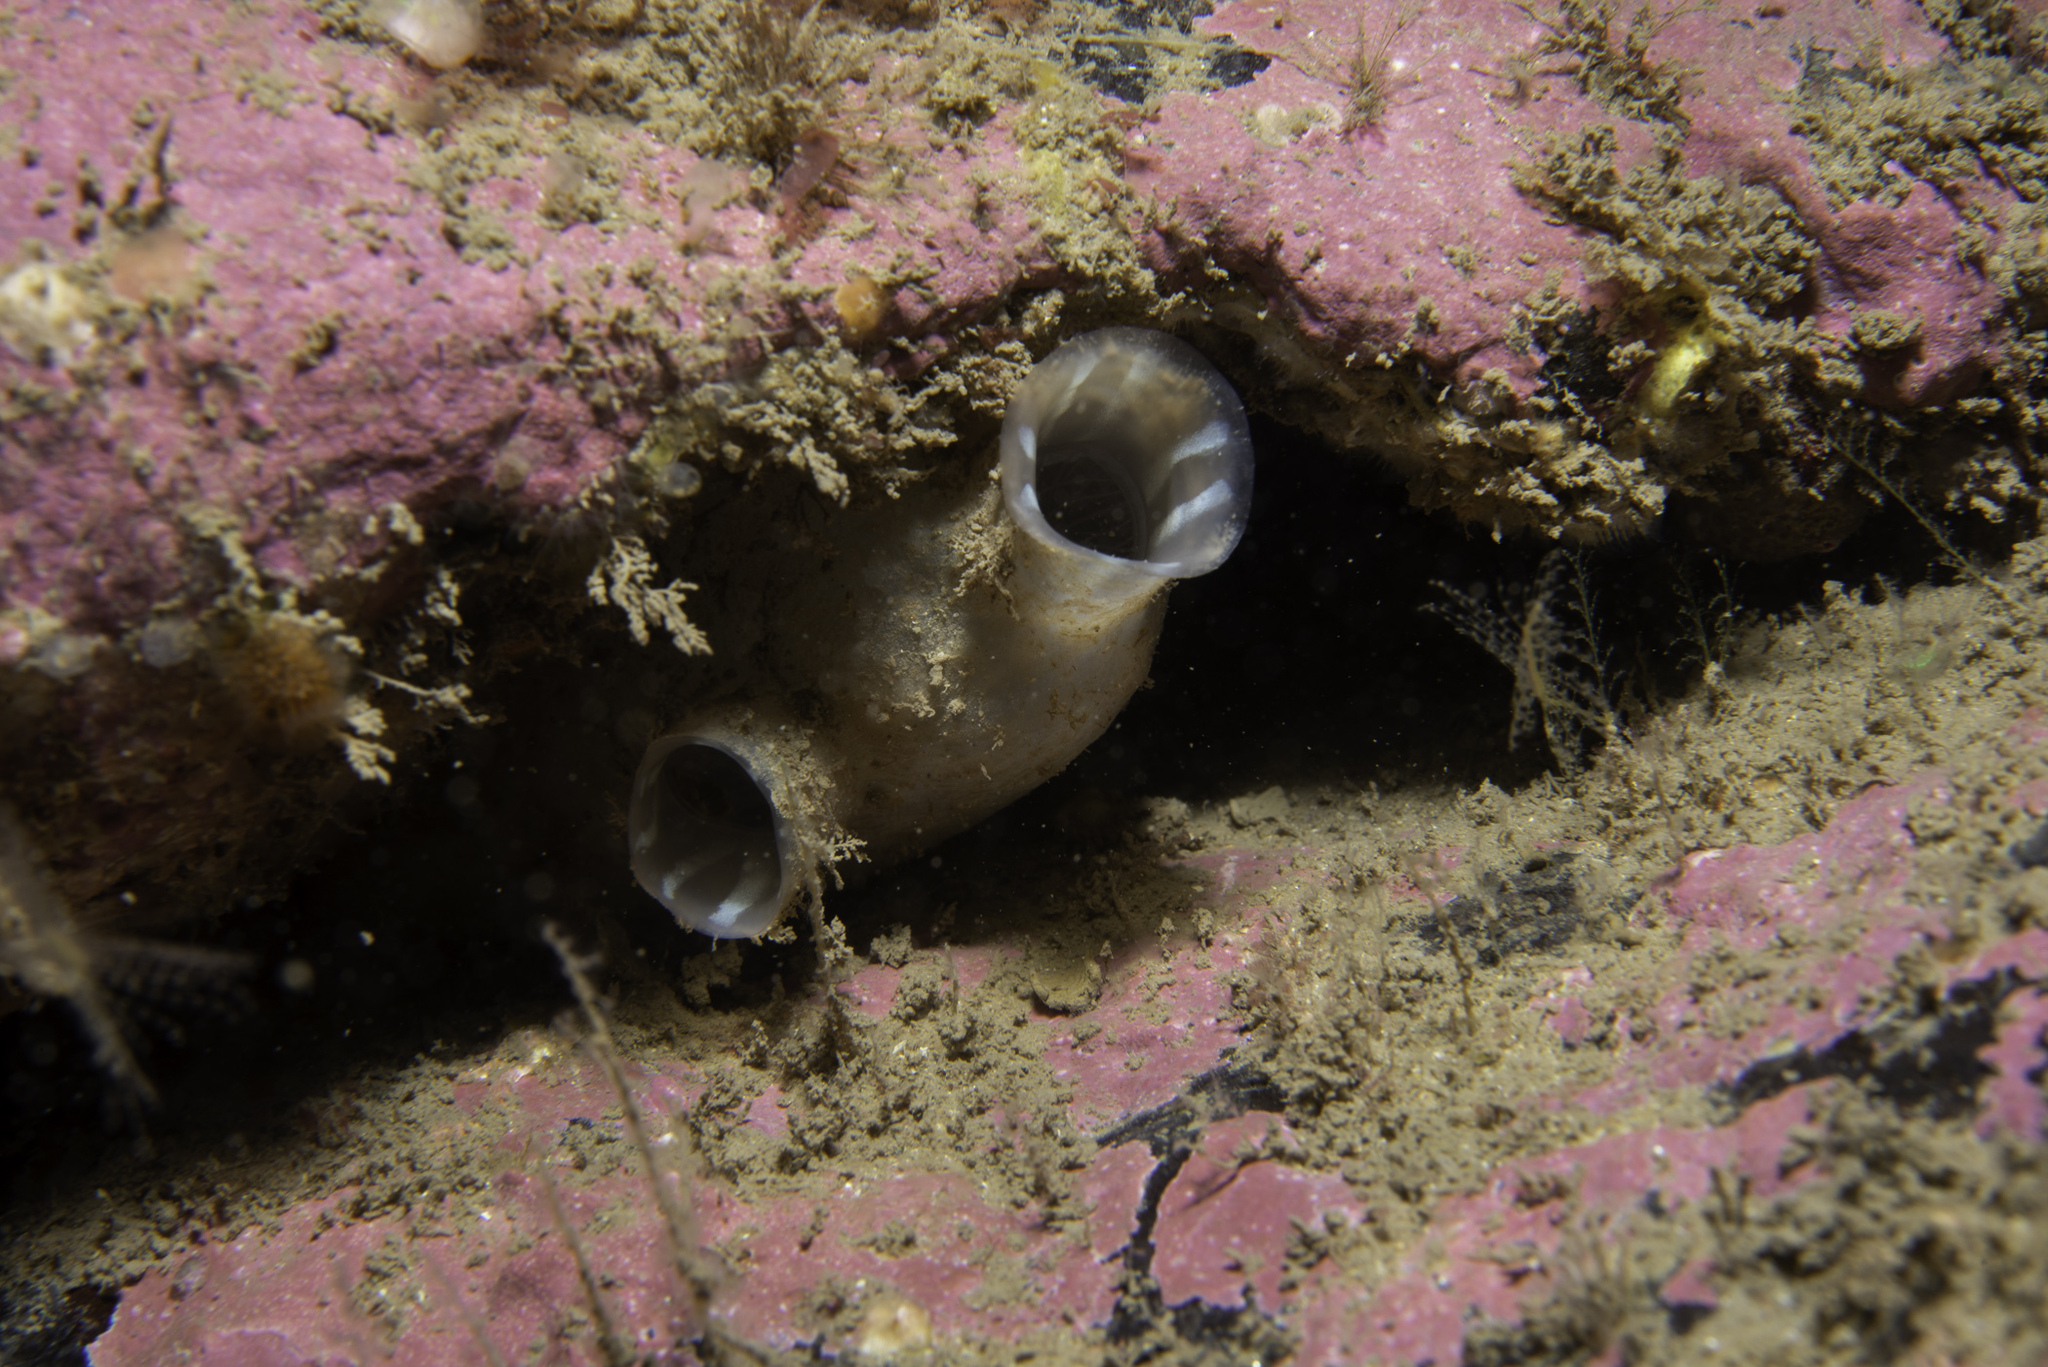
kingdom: Animalia
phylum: Chordata
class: Ascidiacea
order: Stolidobranchia
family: Styelidae
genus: Polycarpa
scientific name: Polycarpa pomaria
